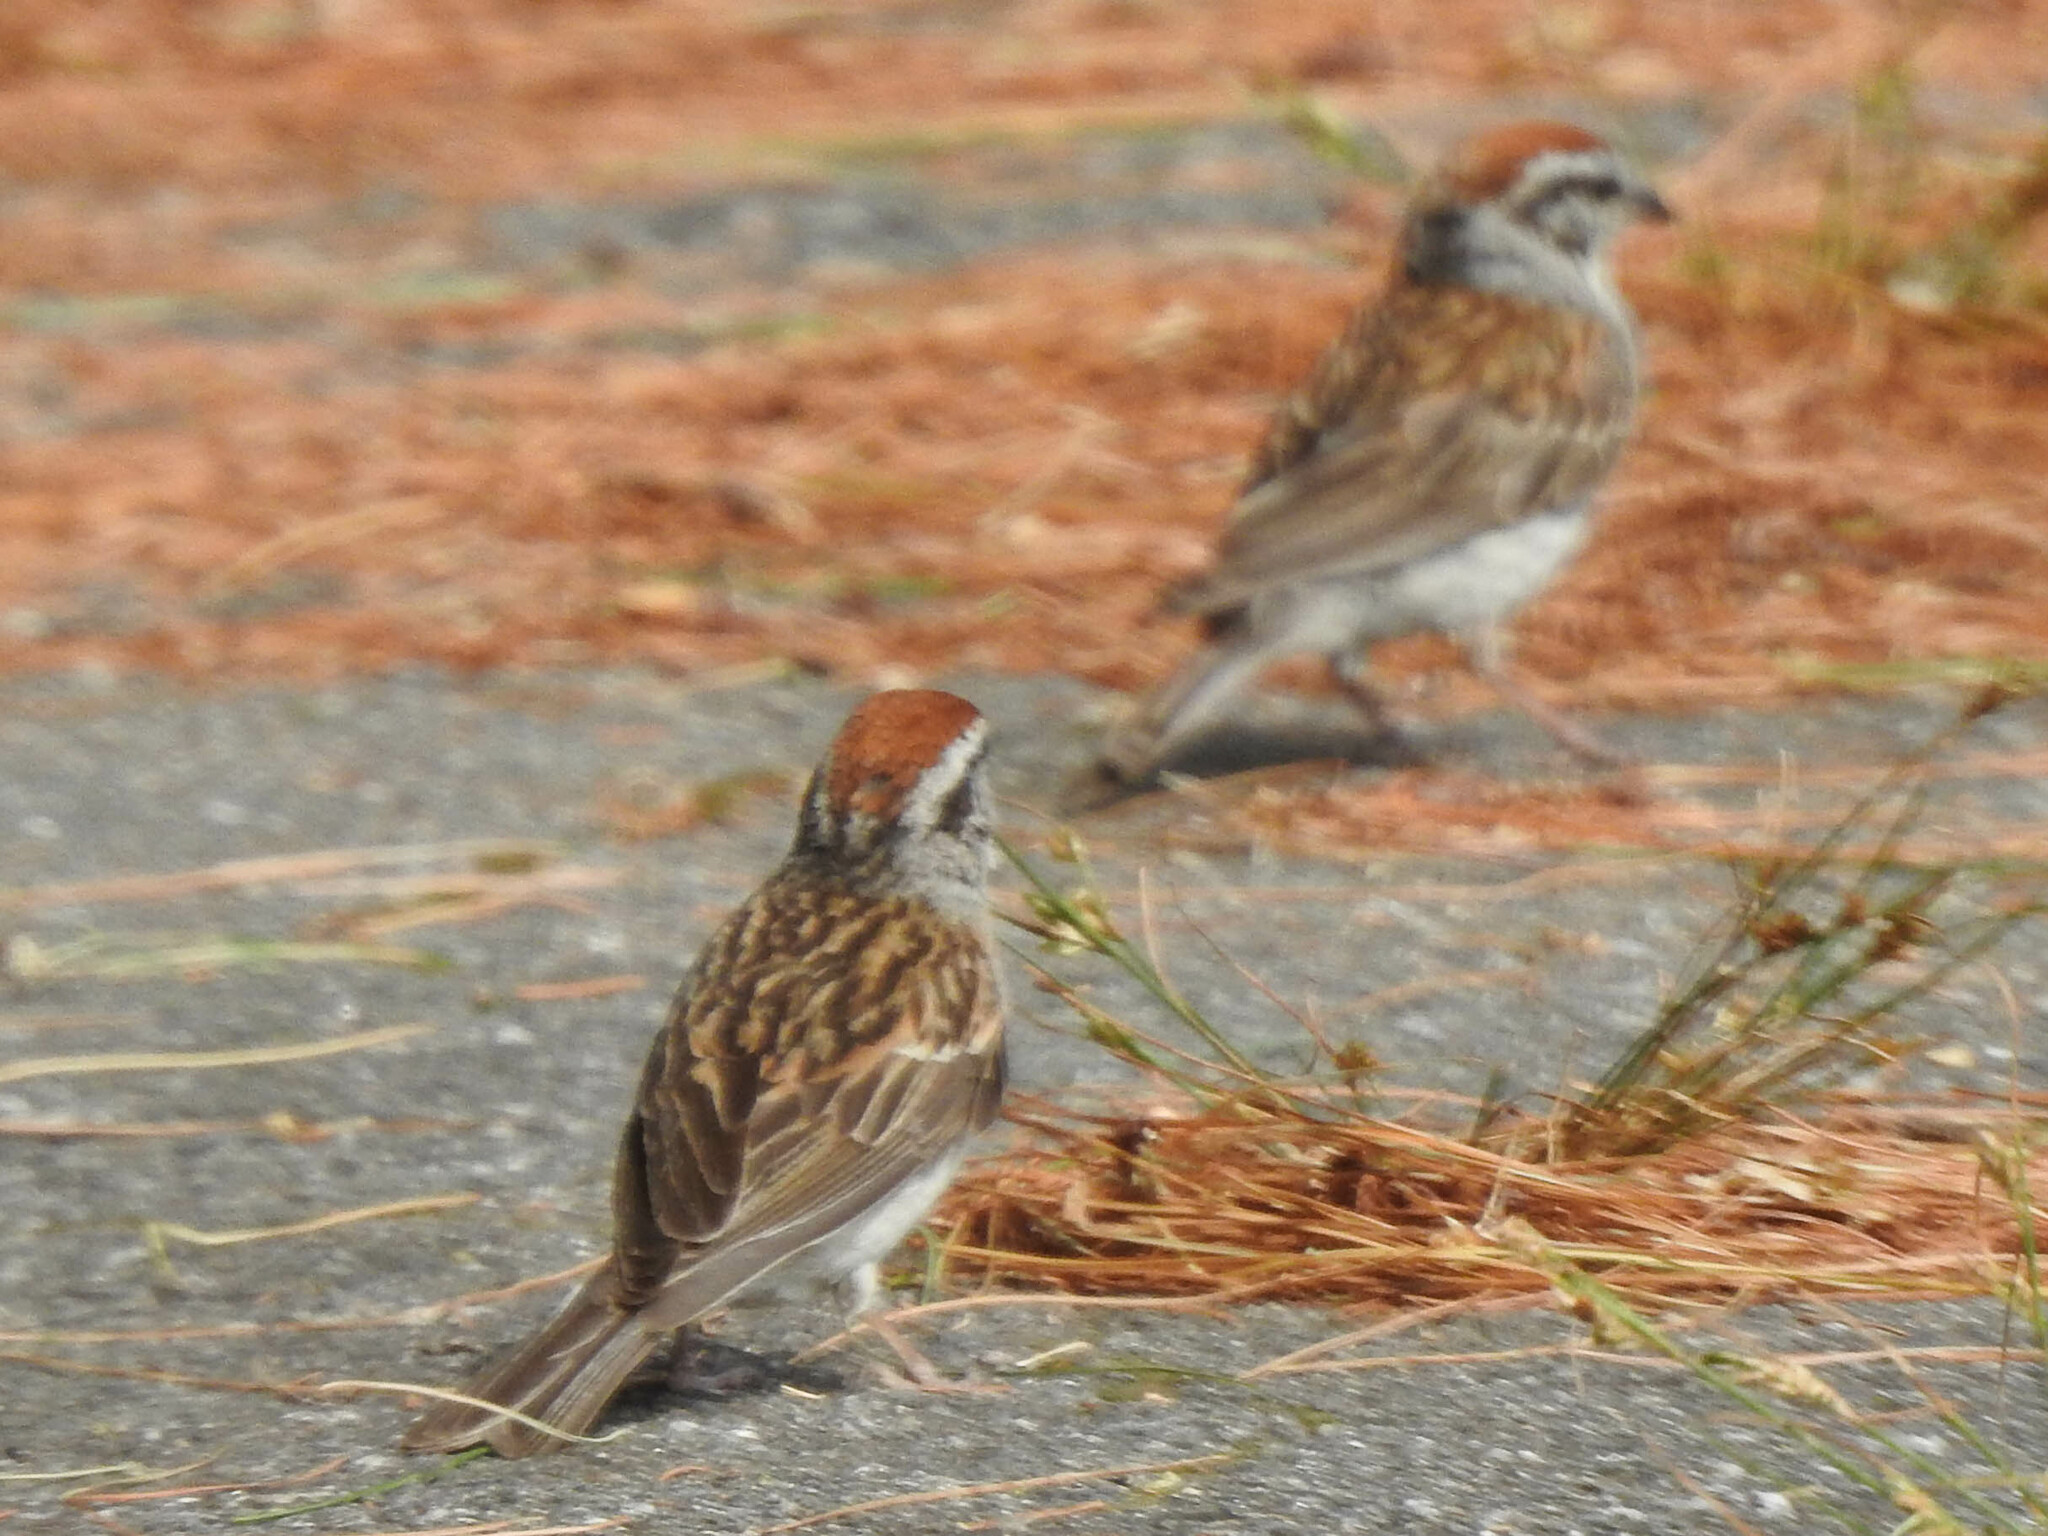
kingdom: Animalia
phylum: Chordata
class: Aves
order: Passeriformes
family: Passerellidae
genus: Spizella
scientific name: Spizella passerina
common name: Chipping sparrow
